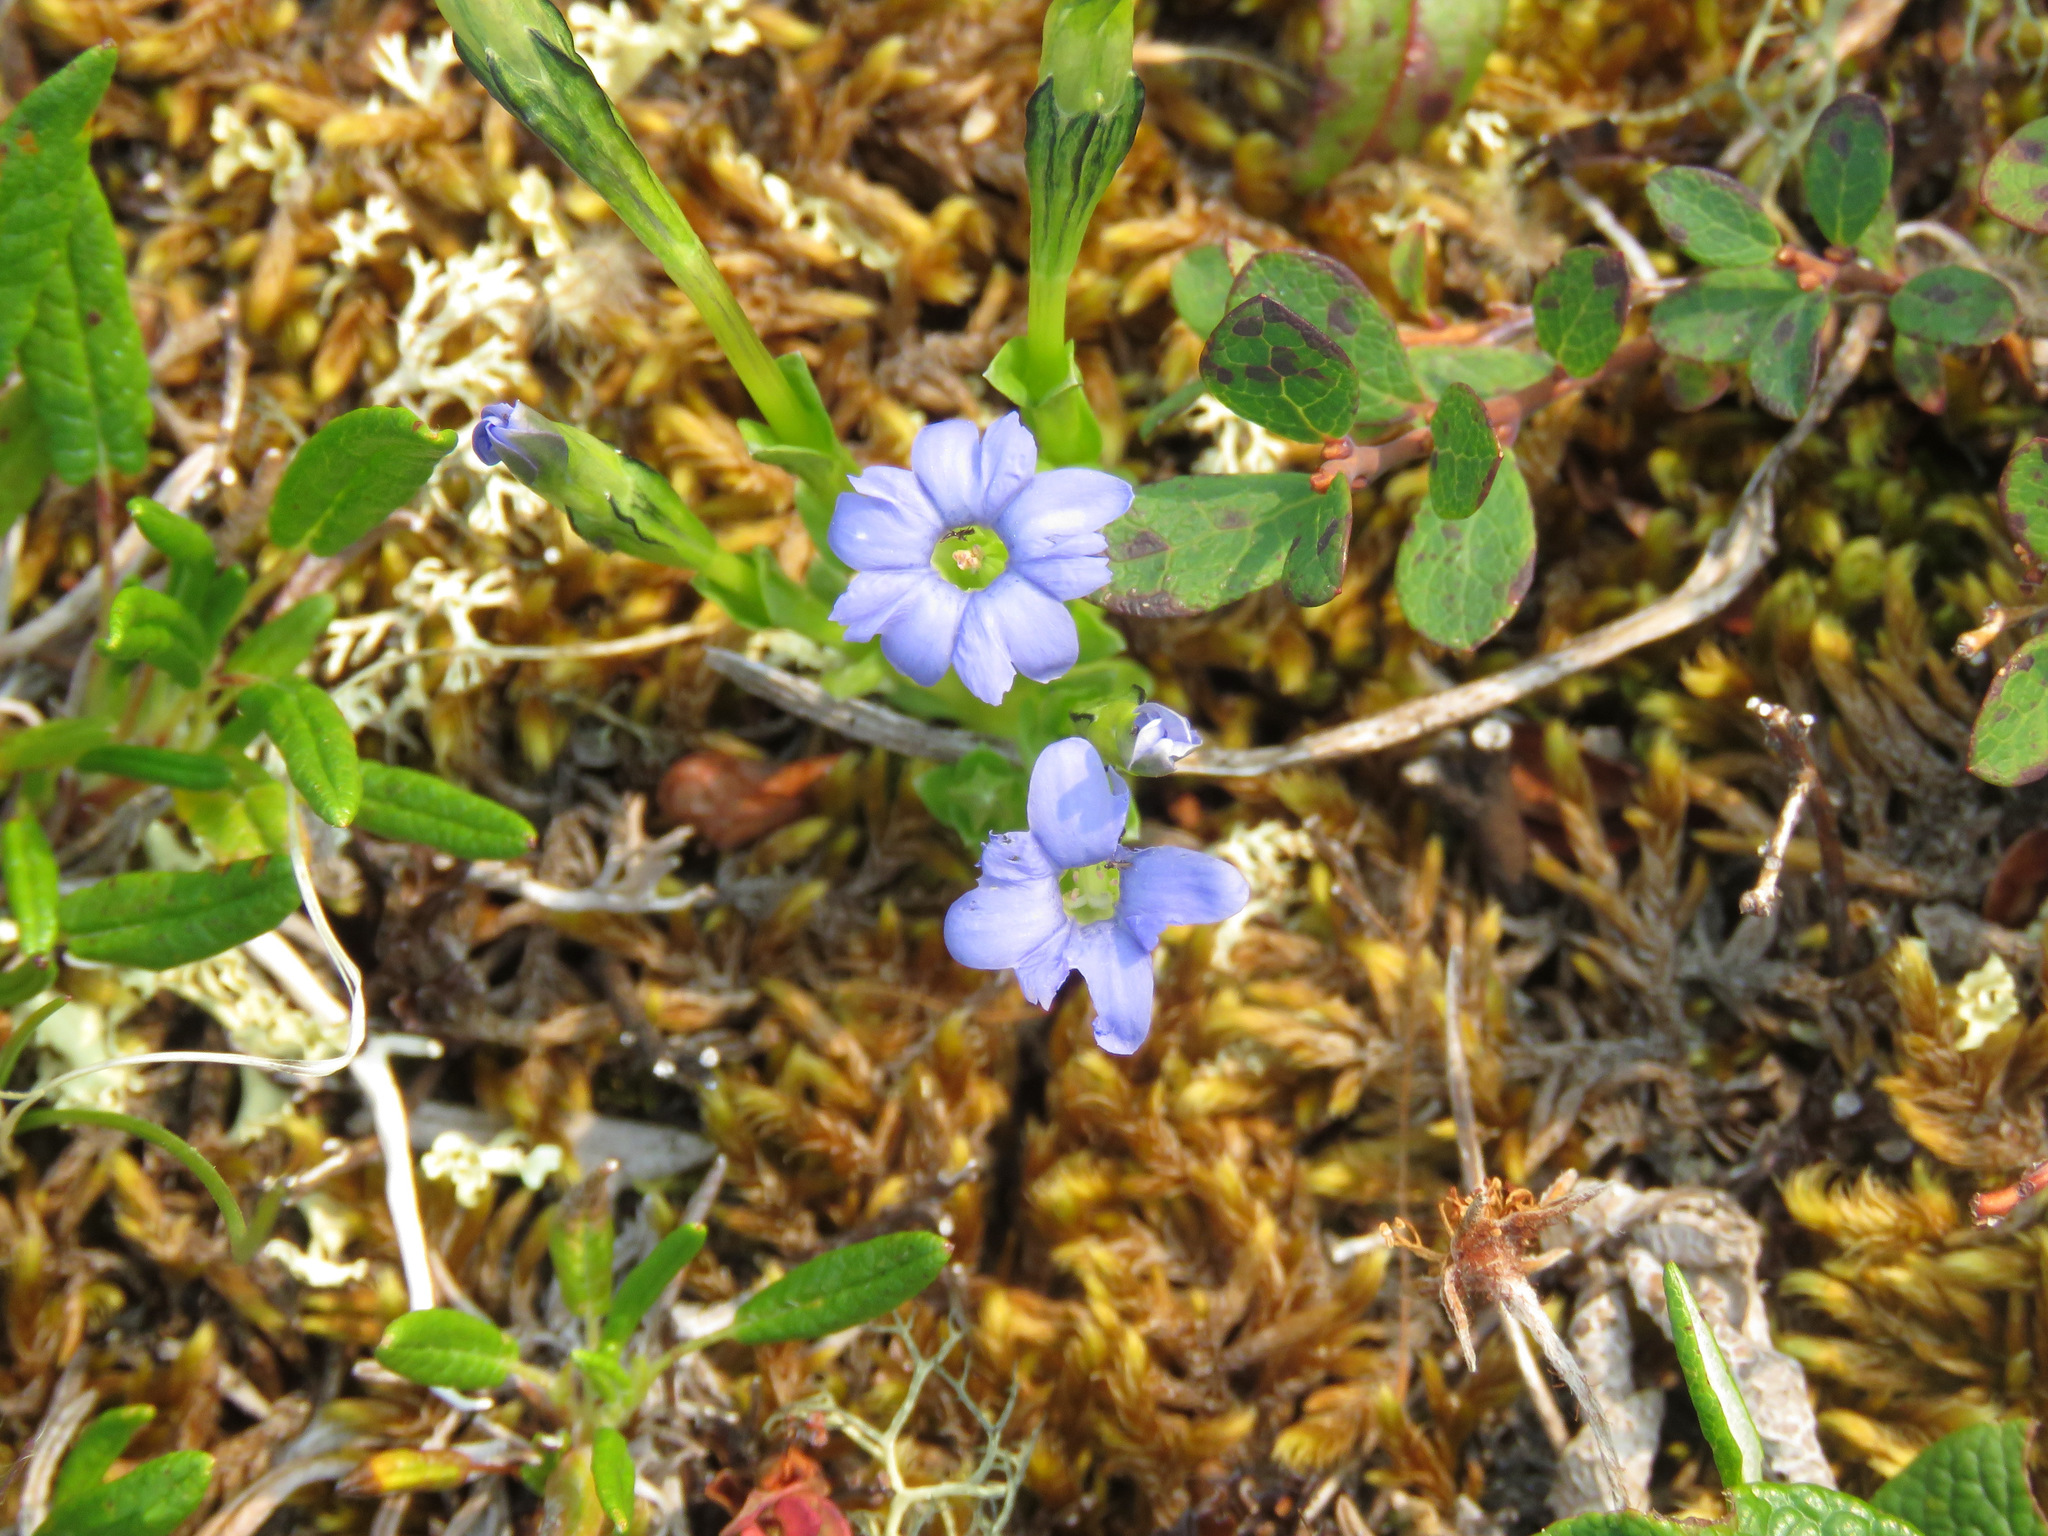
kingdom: Plantae
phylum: Tracheophyta
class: Magnoliopsida
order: Gentianales
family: Gentianaceae
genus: Gentiana
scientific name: Gentiana prostrata
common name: Moss gentian
